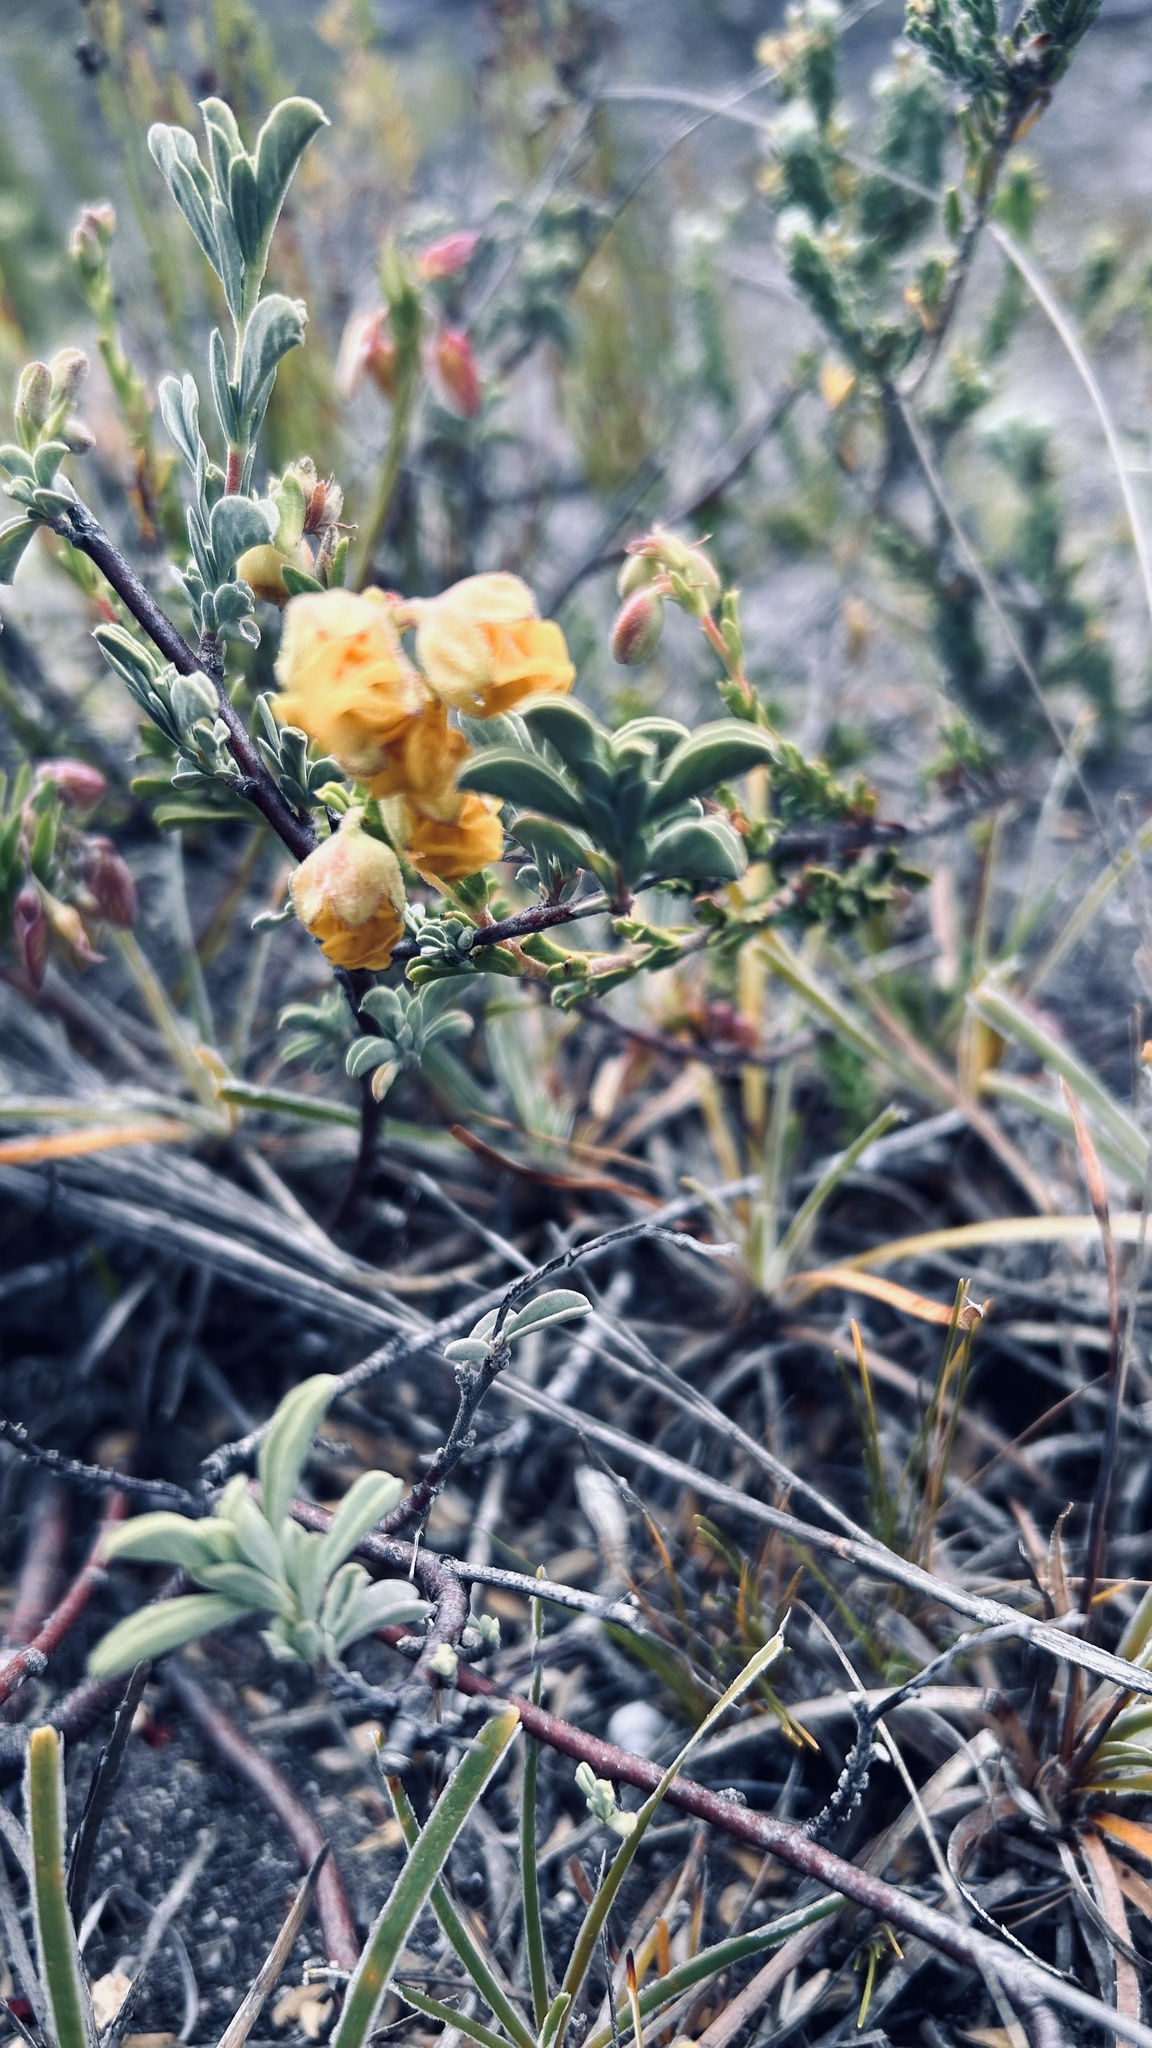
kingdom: Plantae
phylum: Tracheophyta
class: Magnoliopsida
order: Malvales
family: Malvaceae
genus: Hermannia
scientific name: Hermannia concinnifolia
